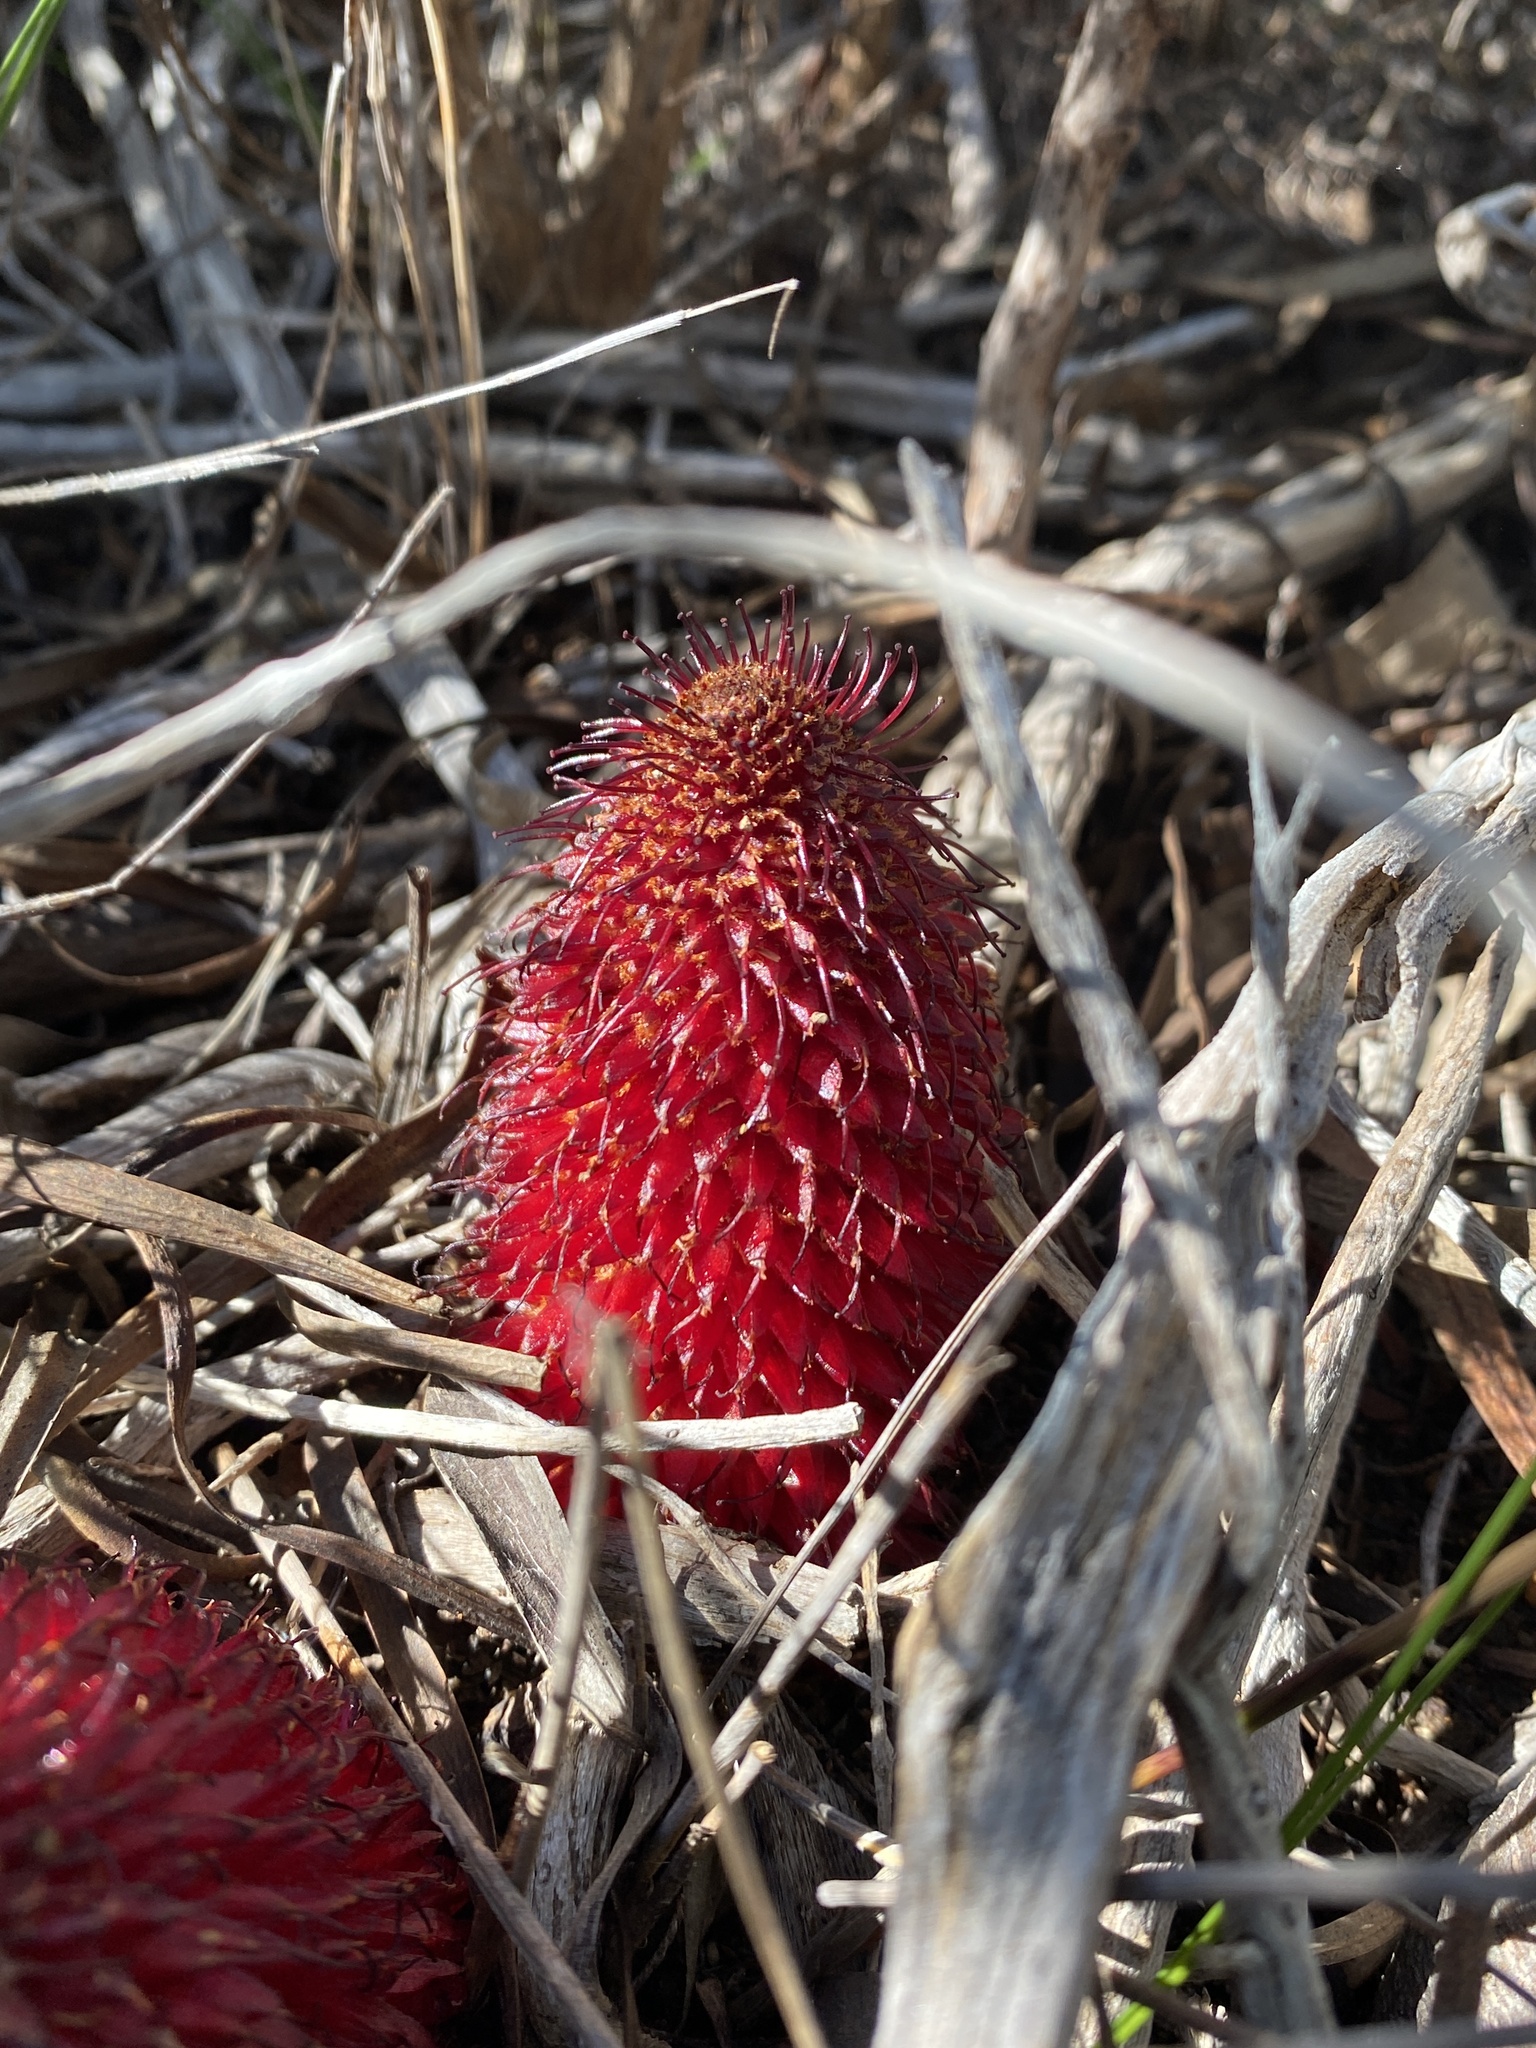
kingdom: Plantae
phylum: Tracheophyta
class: Magnoliopsida
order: Santalales
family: Mystropetalaceae
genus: Mystropetalon
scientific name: Mystropetalon thomii
